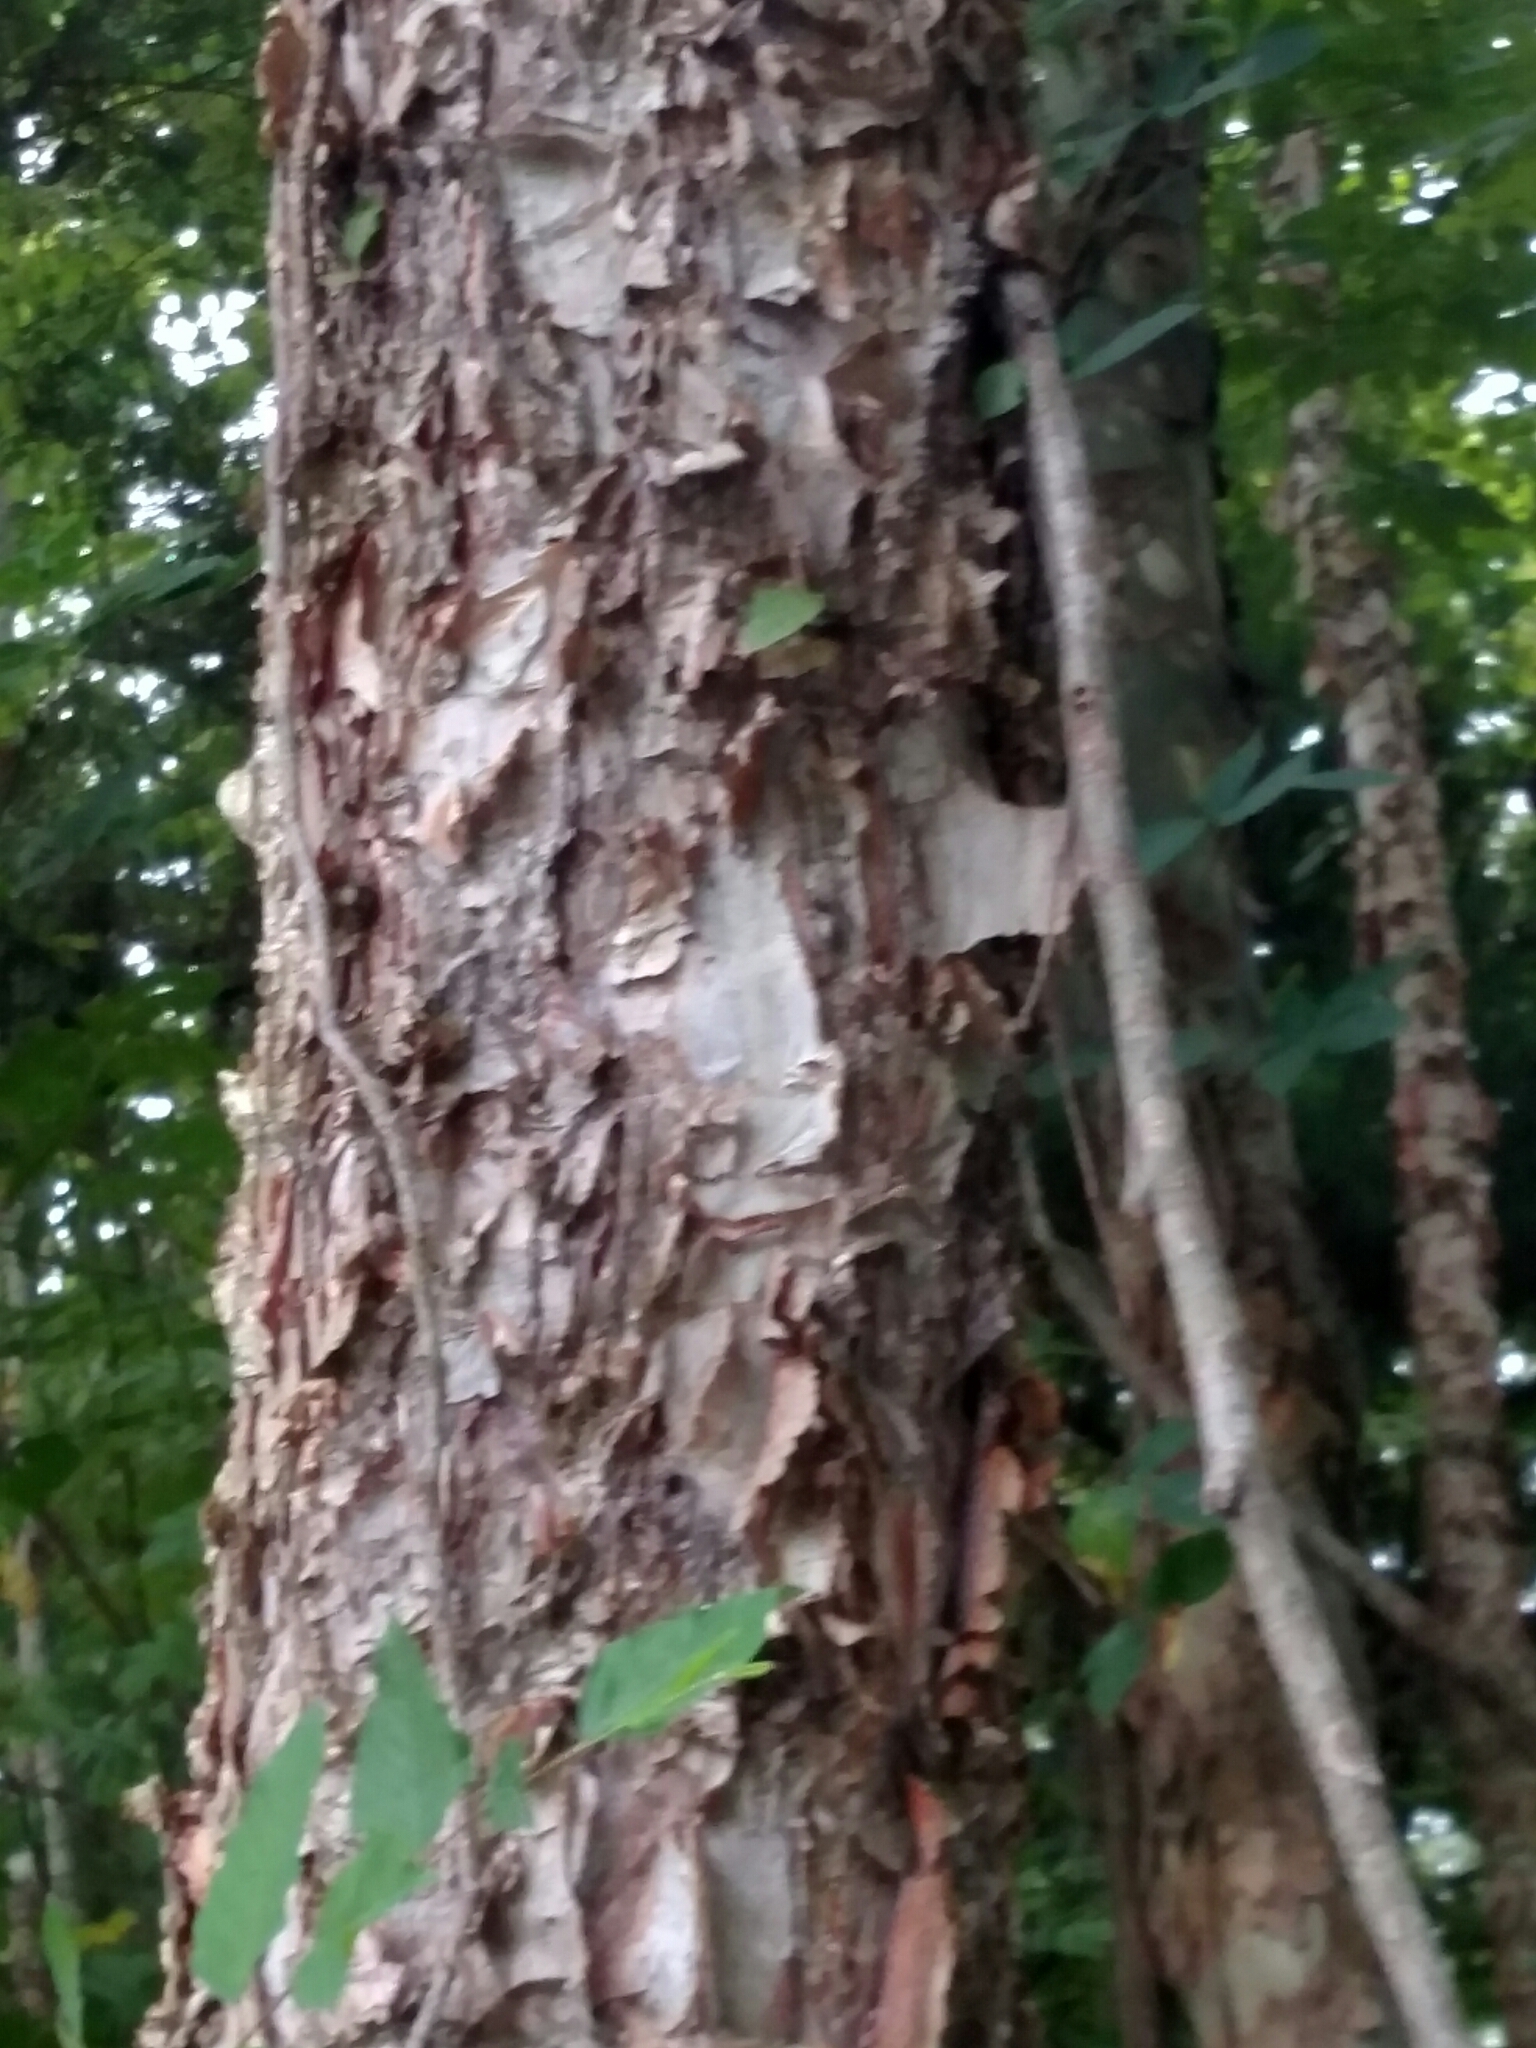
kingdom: Plantae
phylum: Tracheophyta
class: Magnoliopsida
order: Fagales
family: Betulaceae
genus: Betula
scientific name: Betula nigra
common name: Black birch
